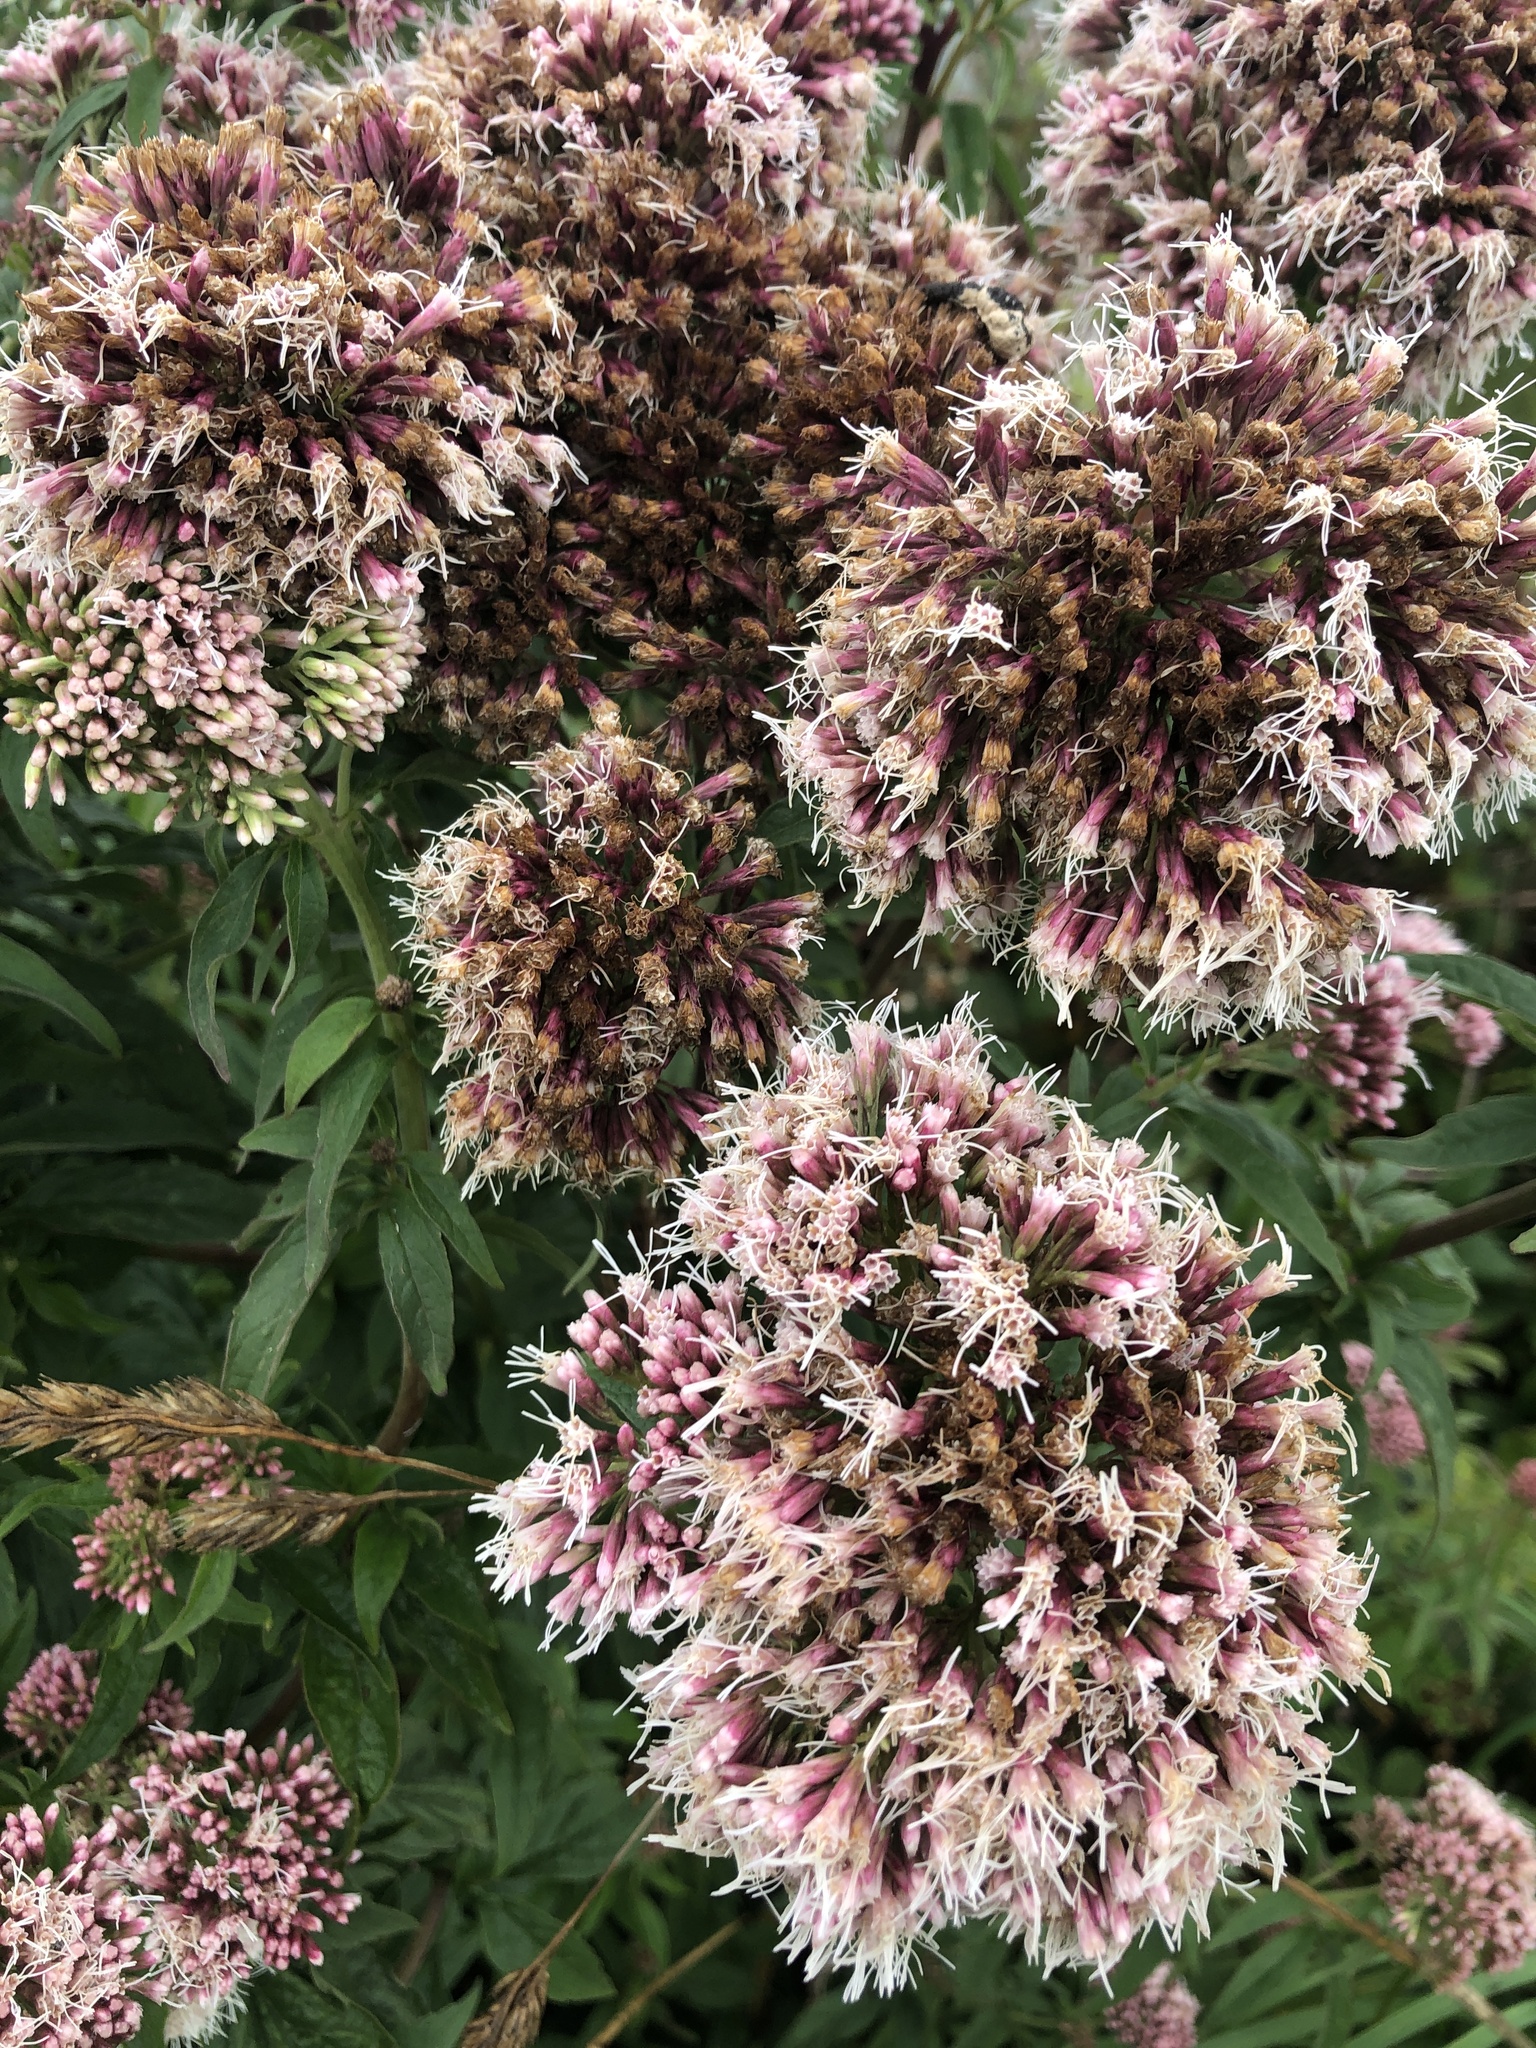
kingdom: Plantae
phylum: Tracheophyta
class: Magnoliopsida
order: Asterales
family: Asteraceae
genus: Eupatorium
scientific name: Eupatorium cannabinum
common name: Hemp-agrimony
